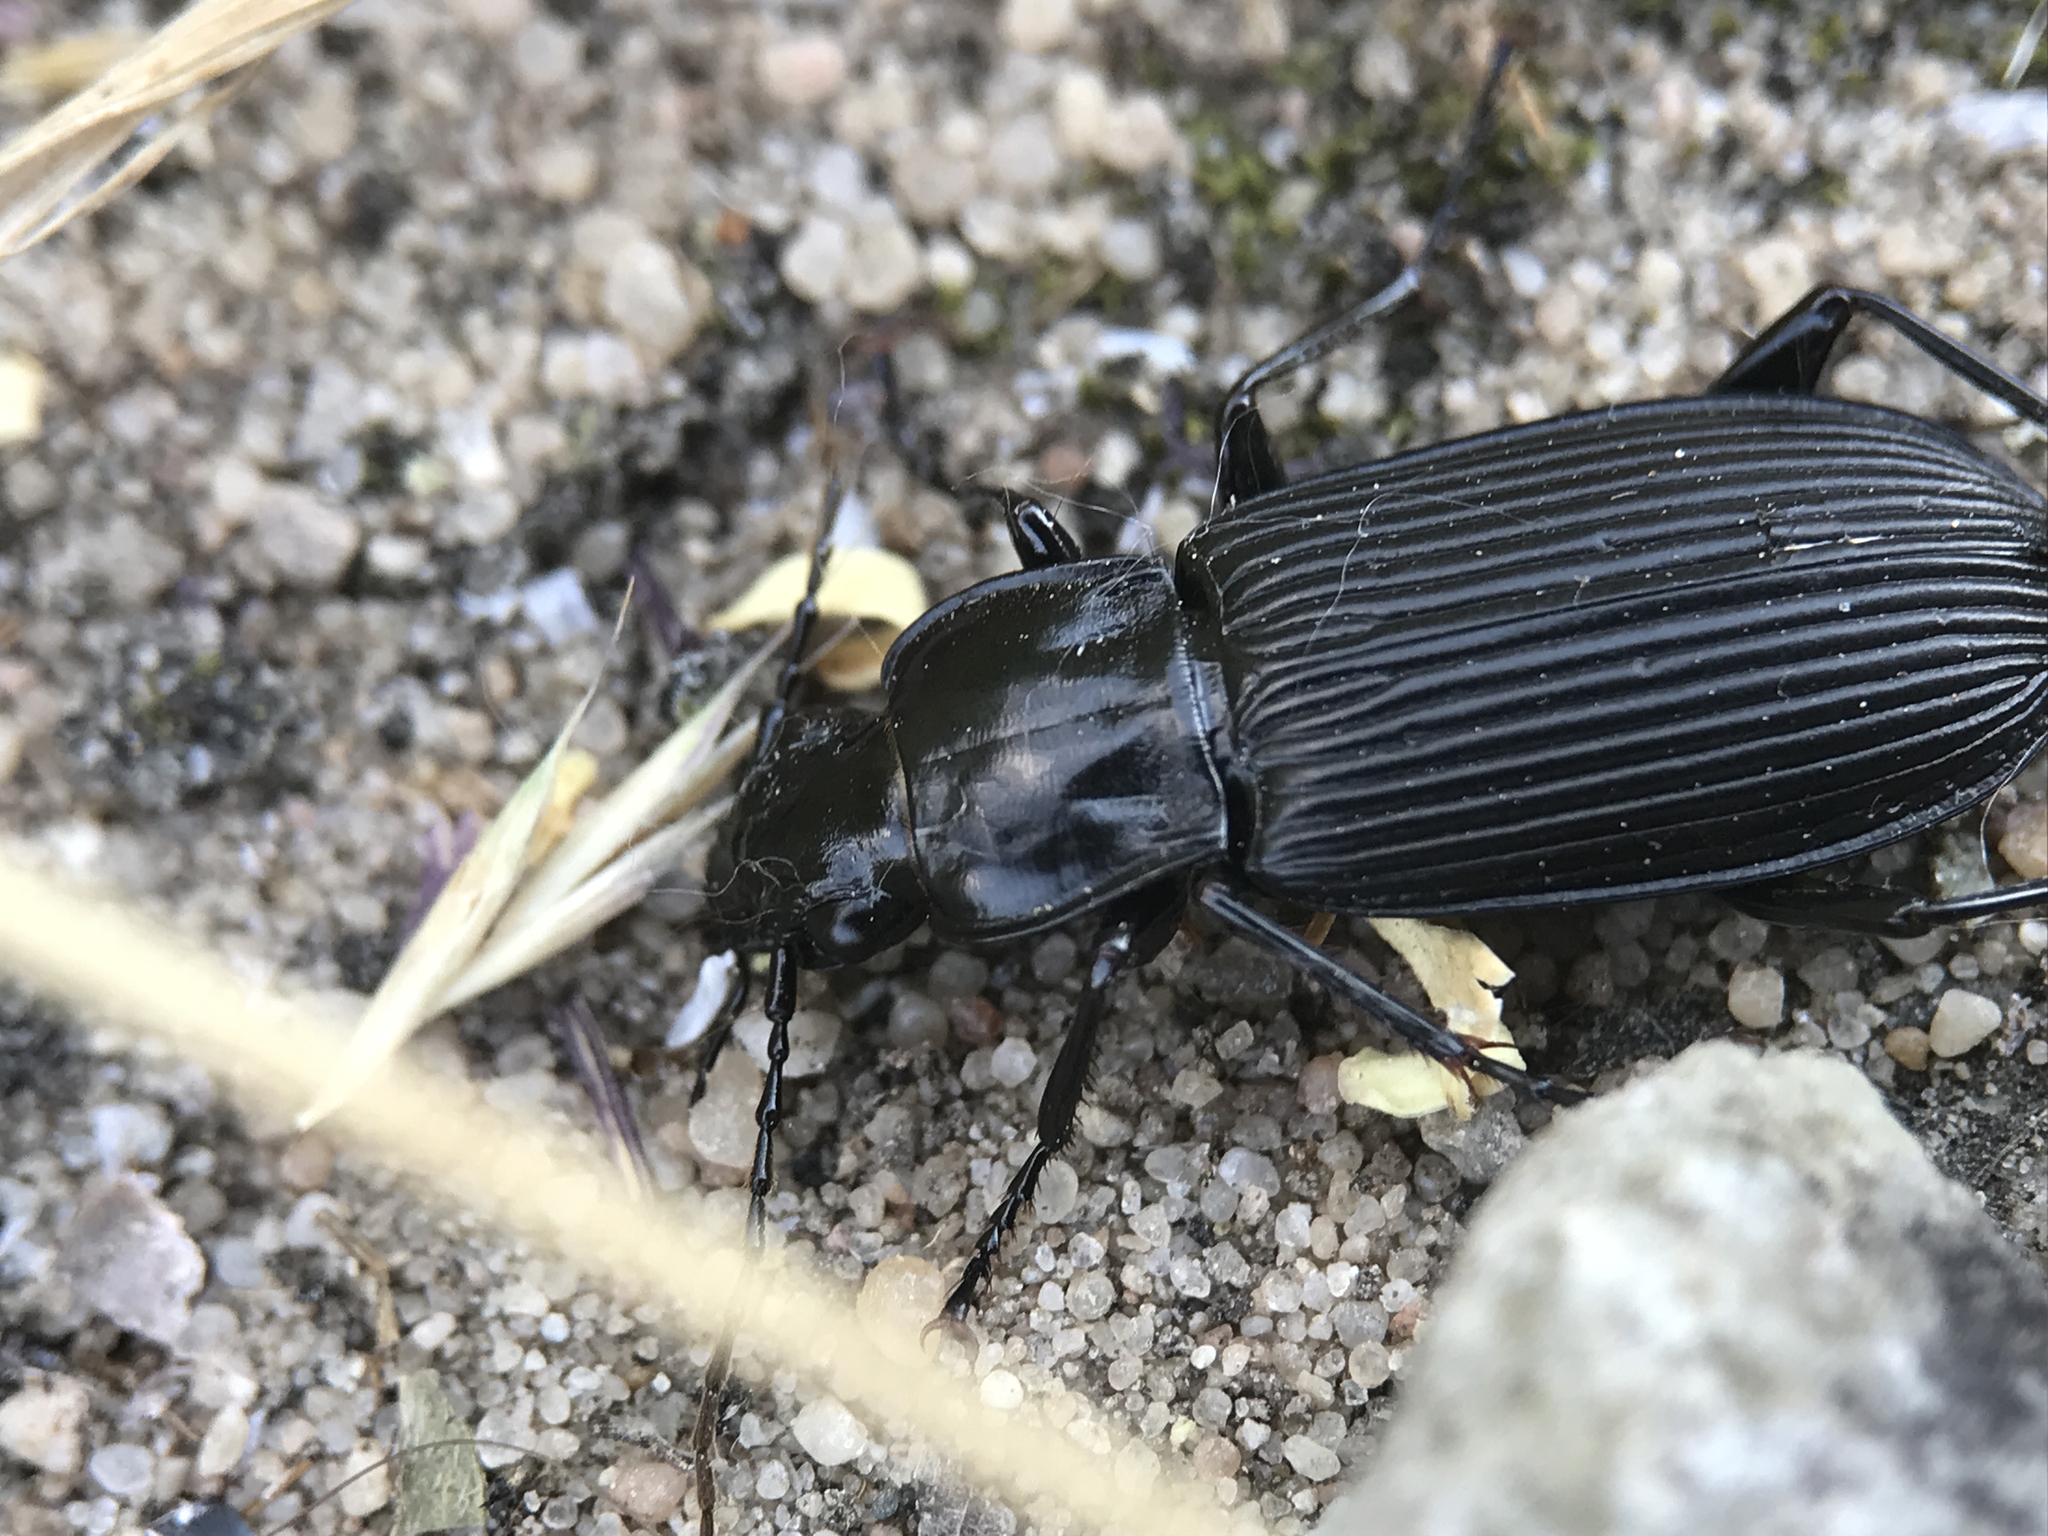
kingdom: Animalia
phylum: Arthropoda
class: Insecta
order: Coleoptera
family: Carabidae
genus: Pterostichus
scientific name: Pterostichus niger
